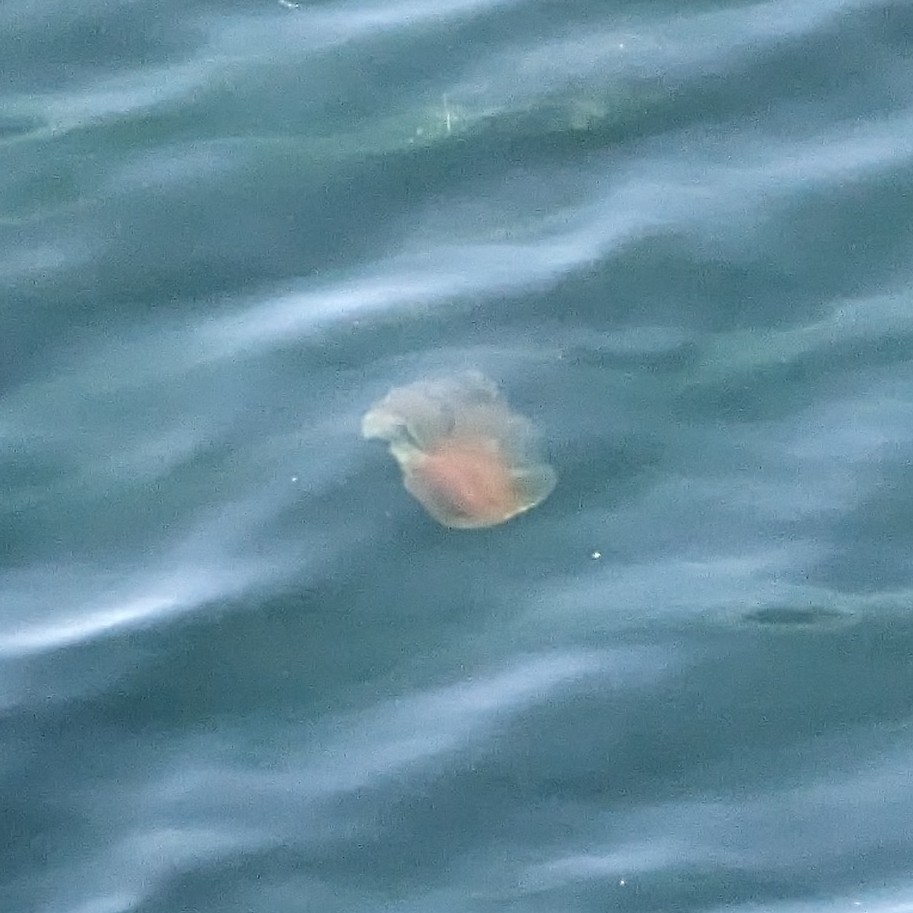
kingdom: Animalia
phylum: Cnidaria
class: Scyphozoa
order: Semaeostomeae
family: Cyaneidae
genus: Cyanea
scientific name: Cyanea ferruginea
